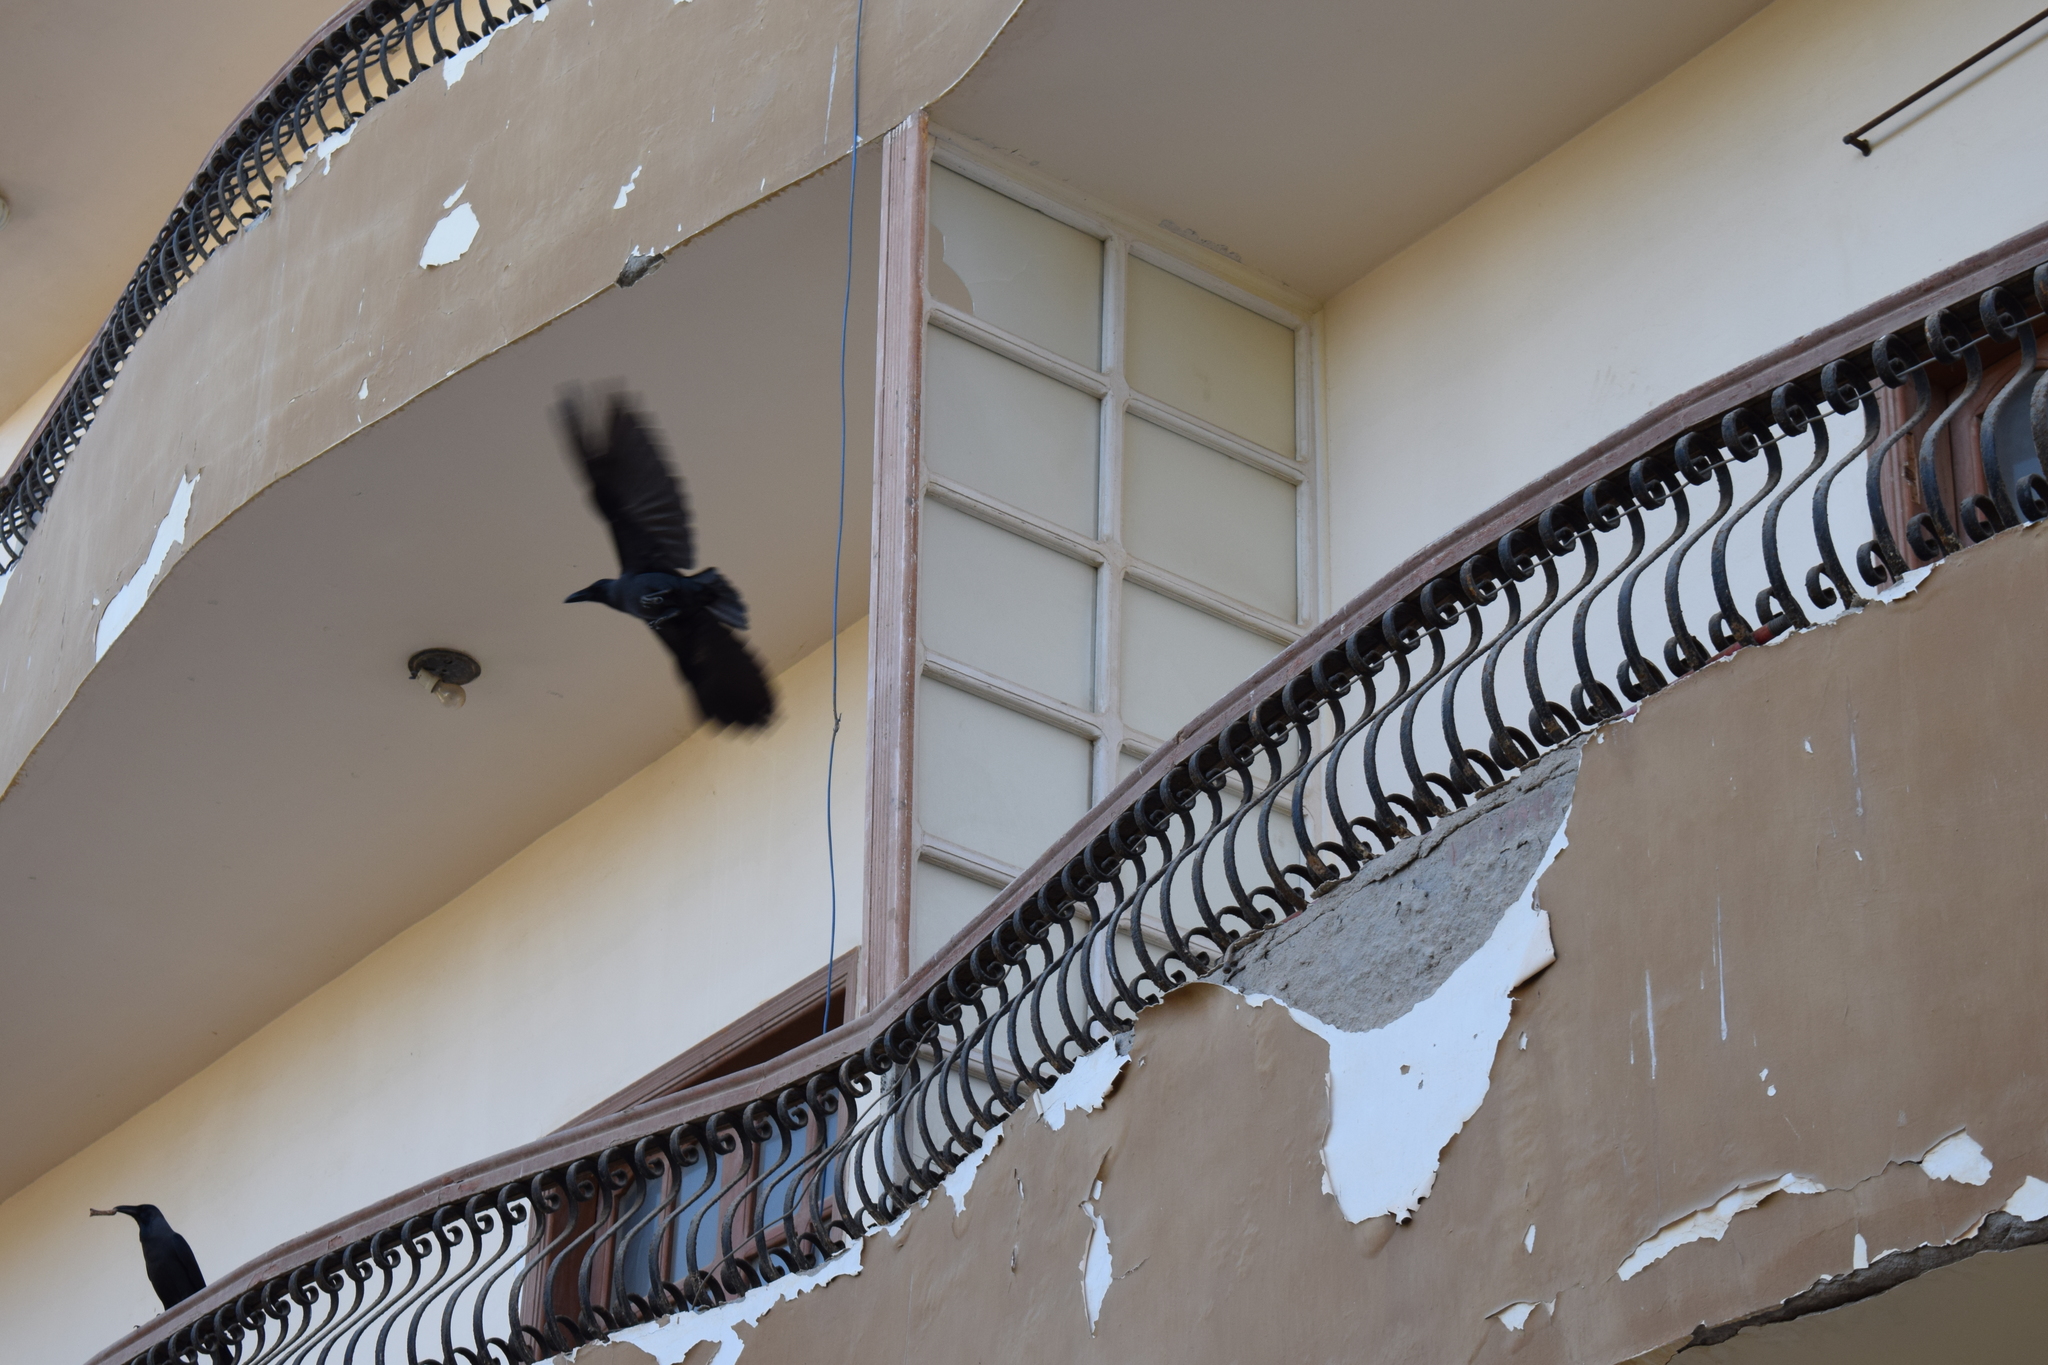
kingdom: Animalia
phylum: Chordata
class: Aves
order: Passeriformes
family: Corvidae
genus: Corvus
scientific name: Corvus splendens
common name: House crow
